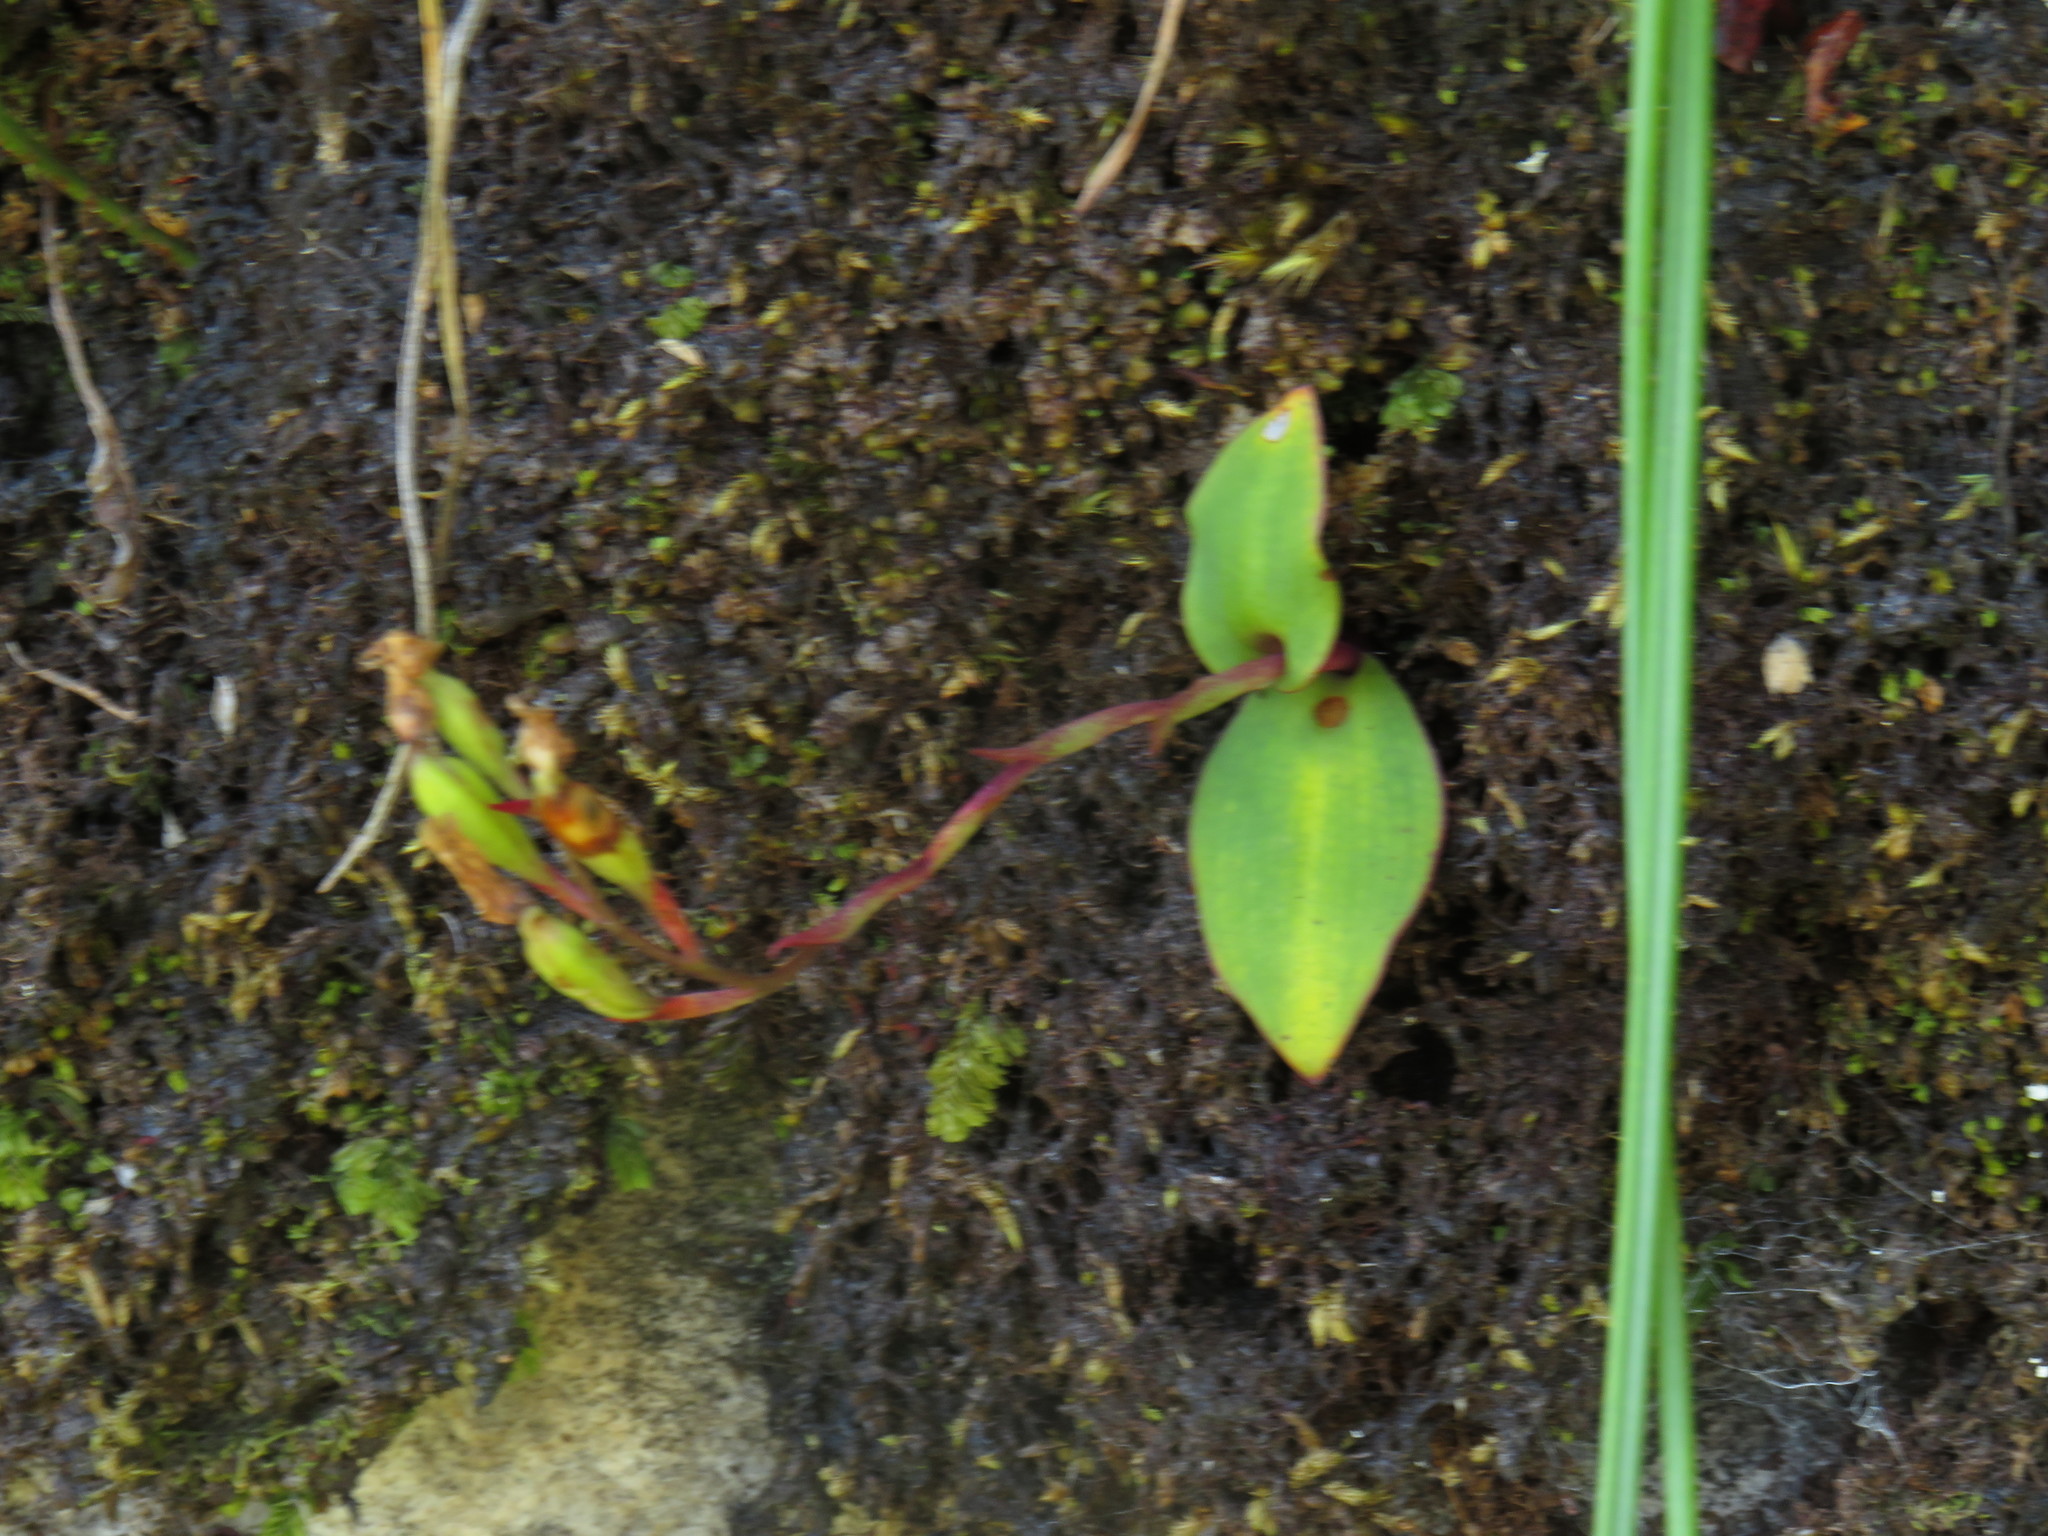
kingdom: Plantae
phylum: Tracheophyta
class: Liliopsida
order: Asparagales
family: Orchidaceae
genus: Disa
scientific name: Disa rosea
